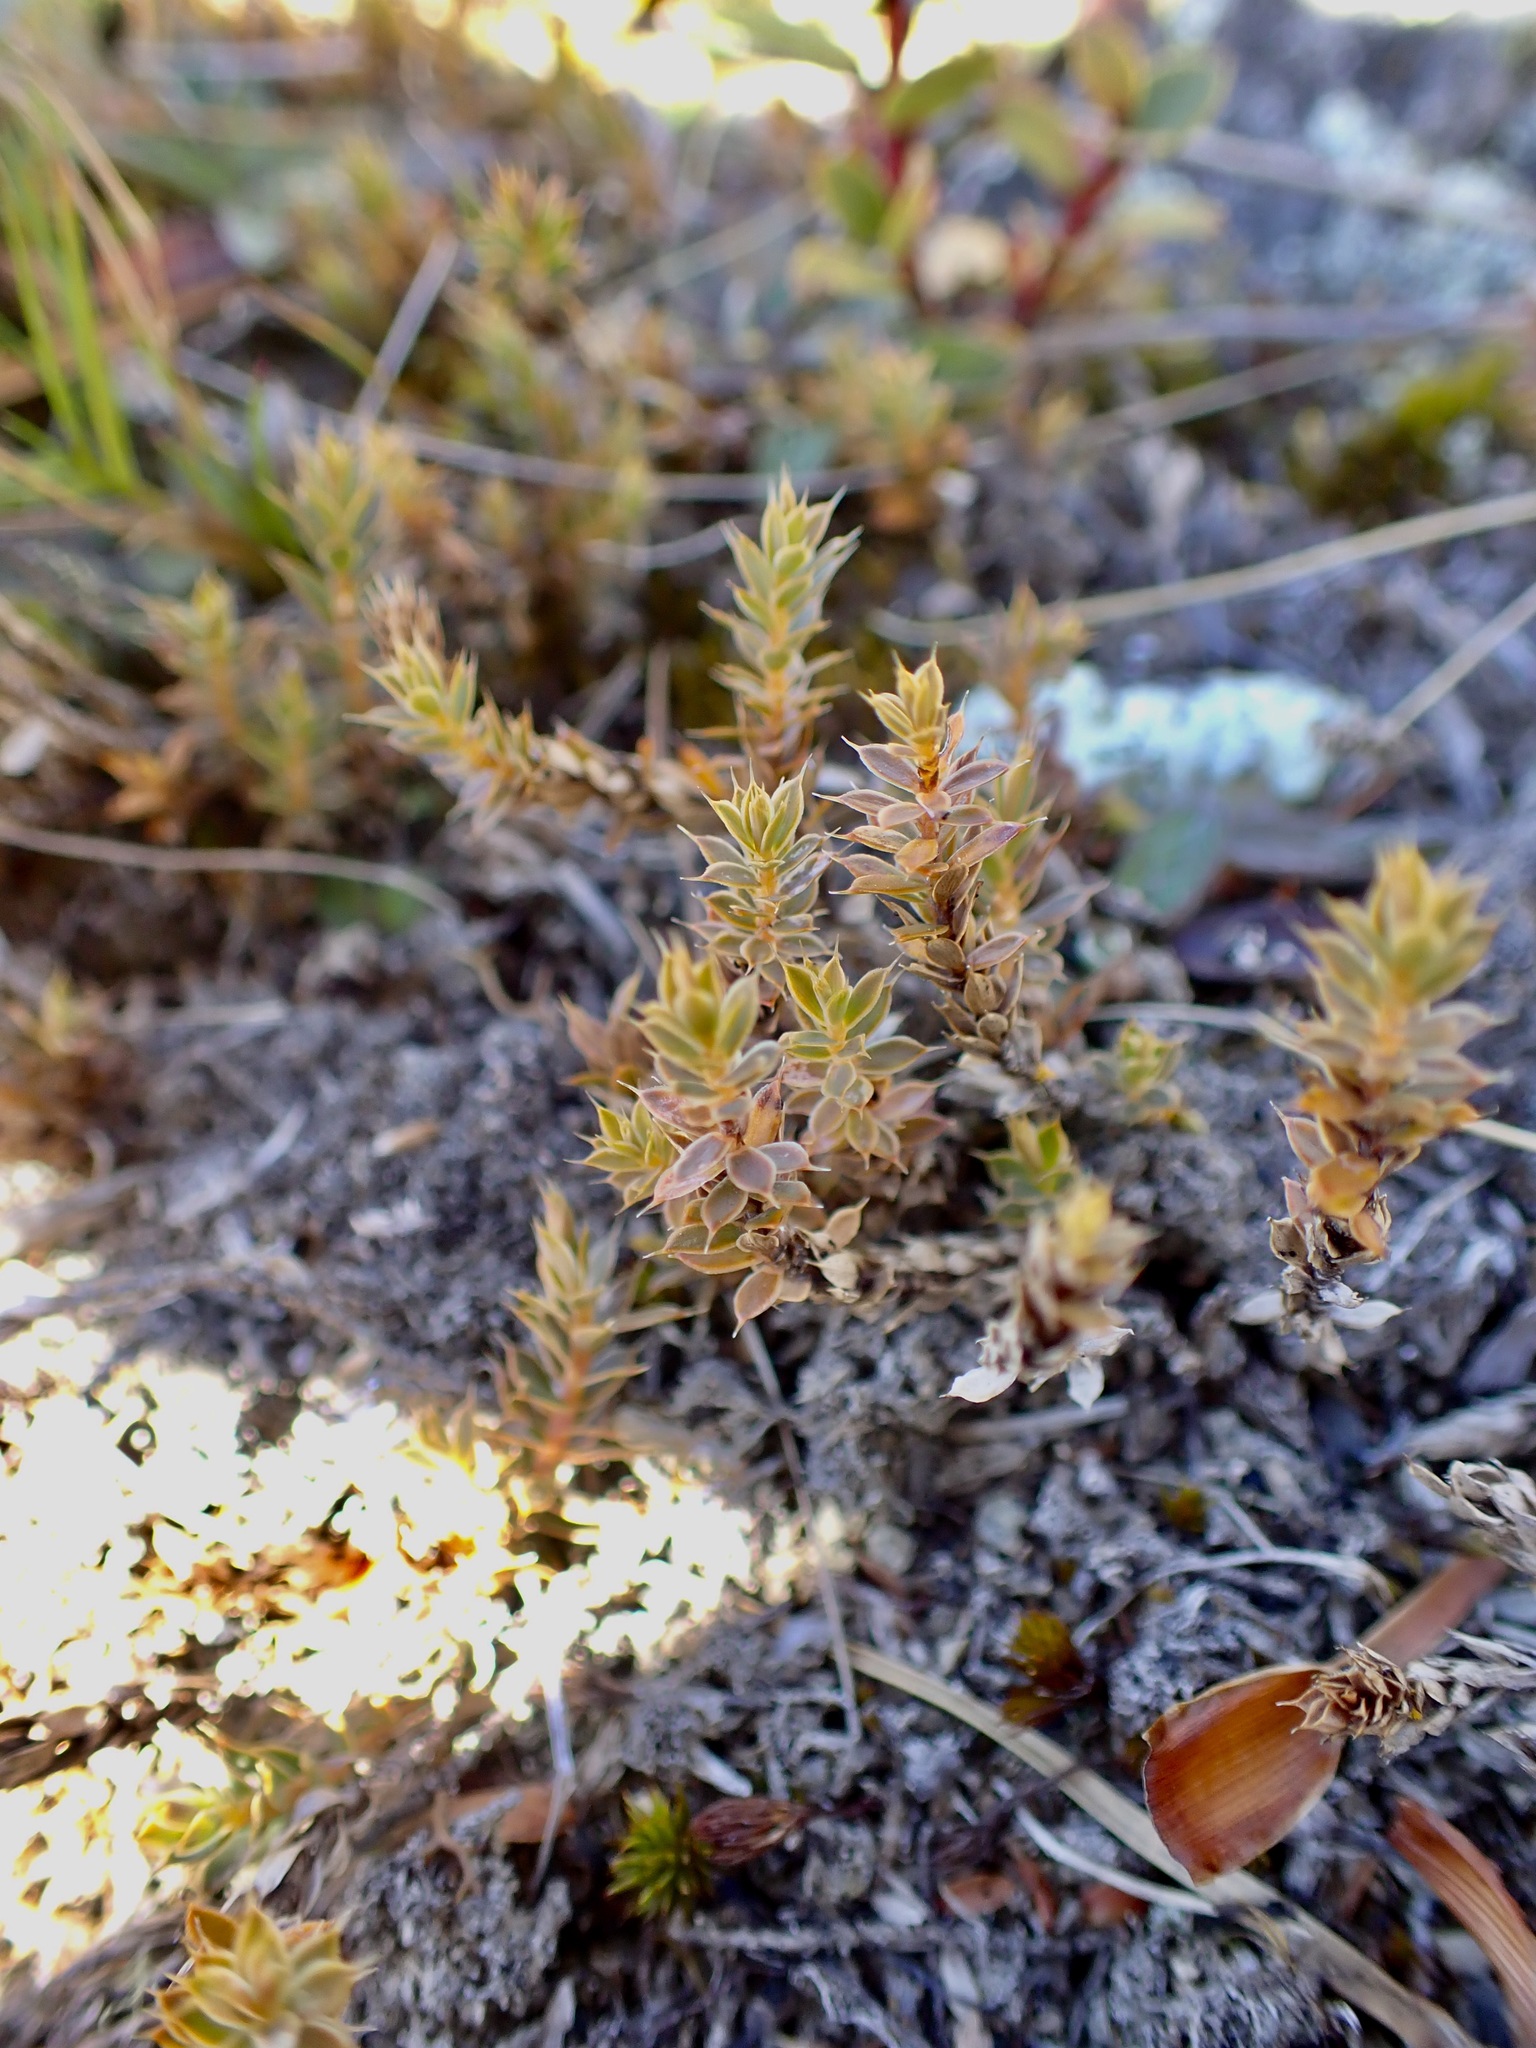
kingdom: Plantae
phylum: Tracheophyta
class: Magnoliopsida
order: Ericales
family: Ericaceae
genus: Styphelia
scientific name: Styphelia nesophila
